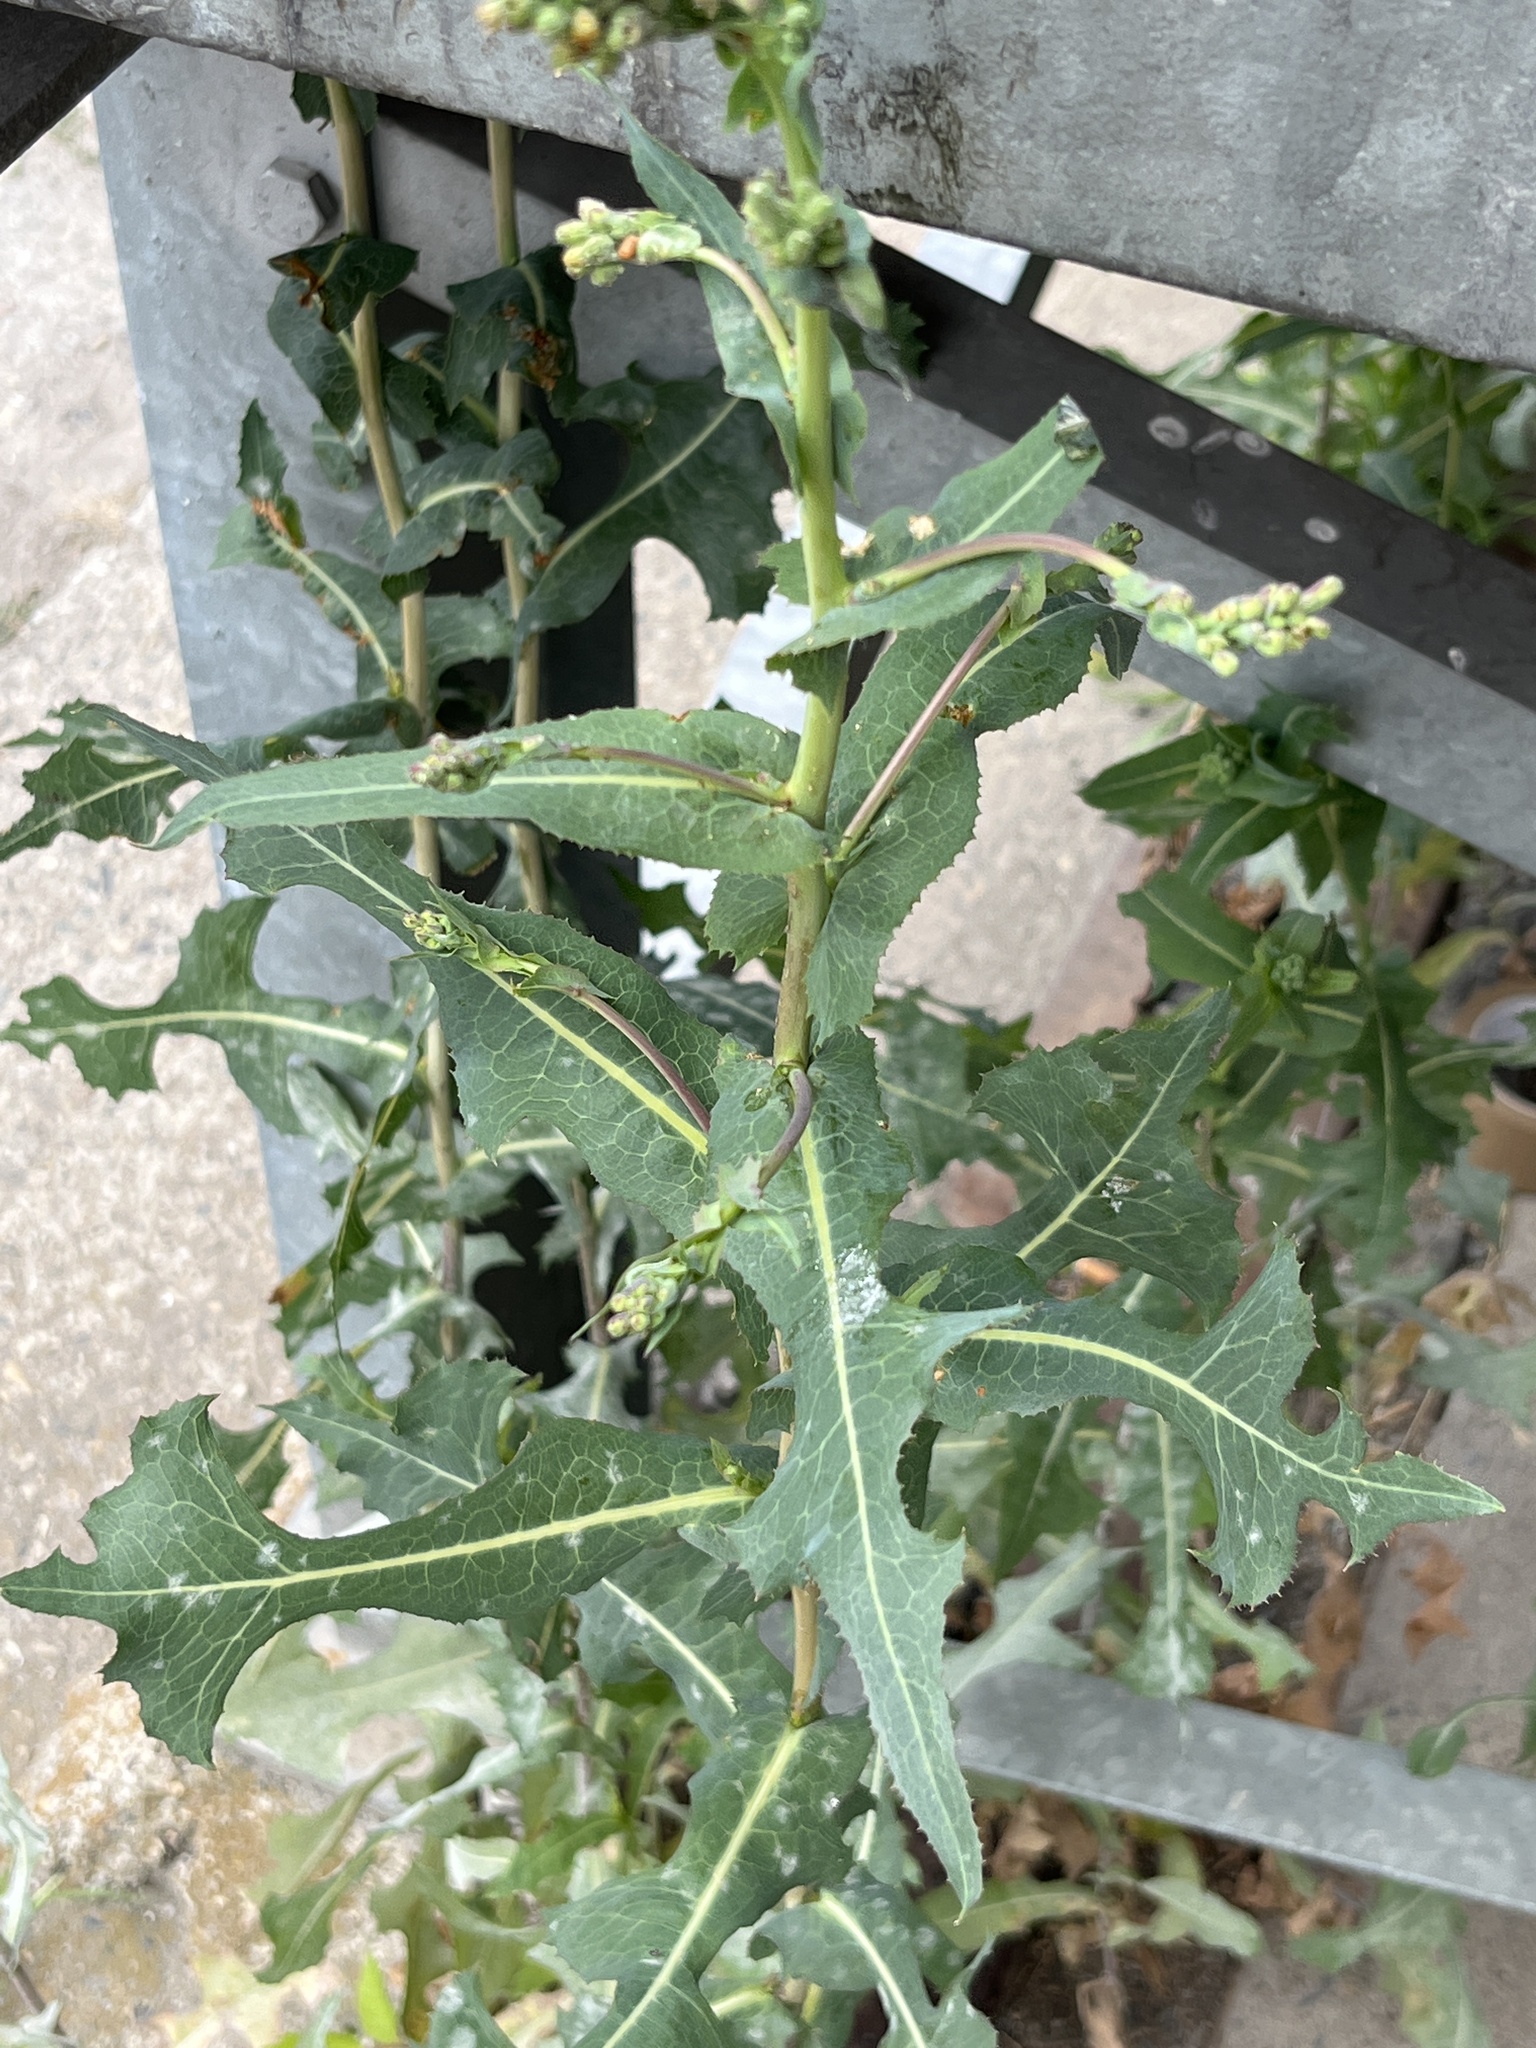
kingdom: Plantae
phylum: Tracheophyta
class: Magnoliopsida
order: Asterales
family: Asteraceae
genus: Lactuca
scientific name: Lactuca serriola
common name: Prickly lettuce
